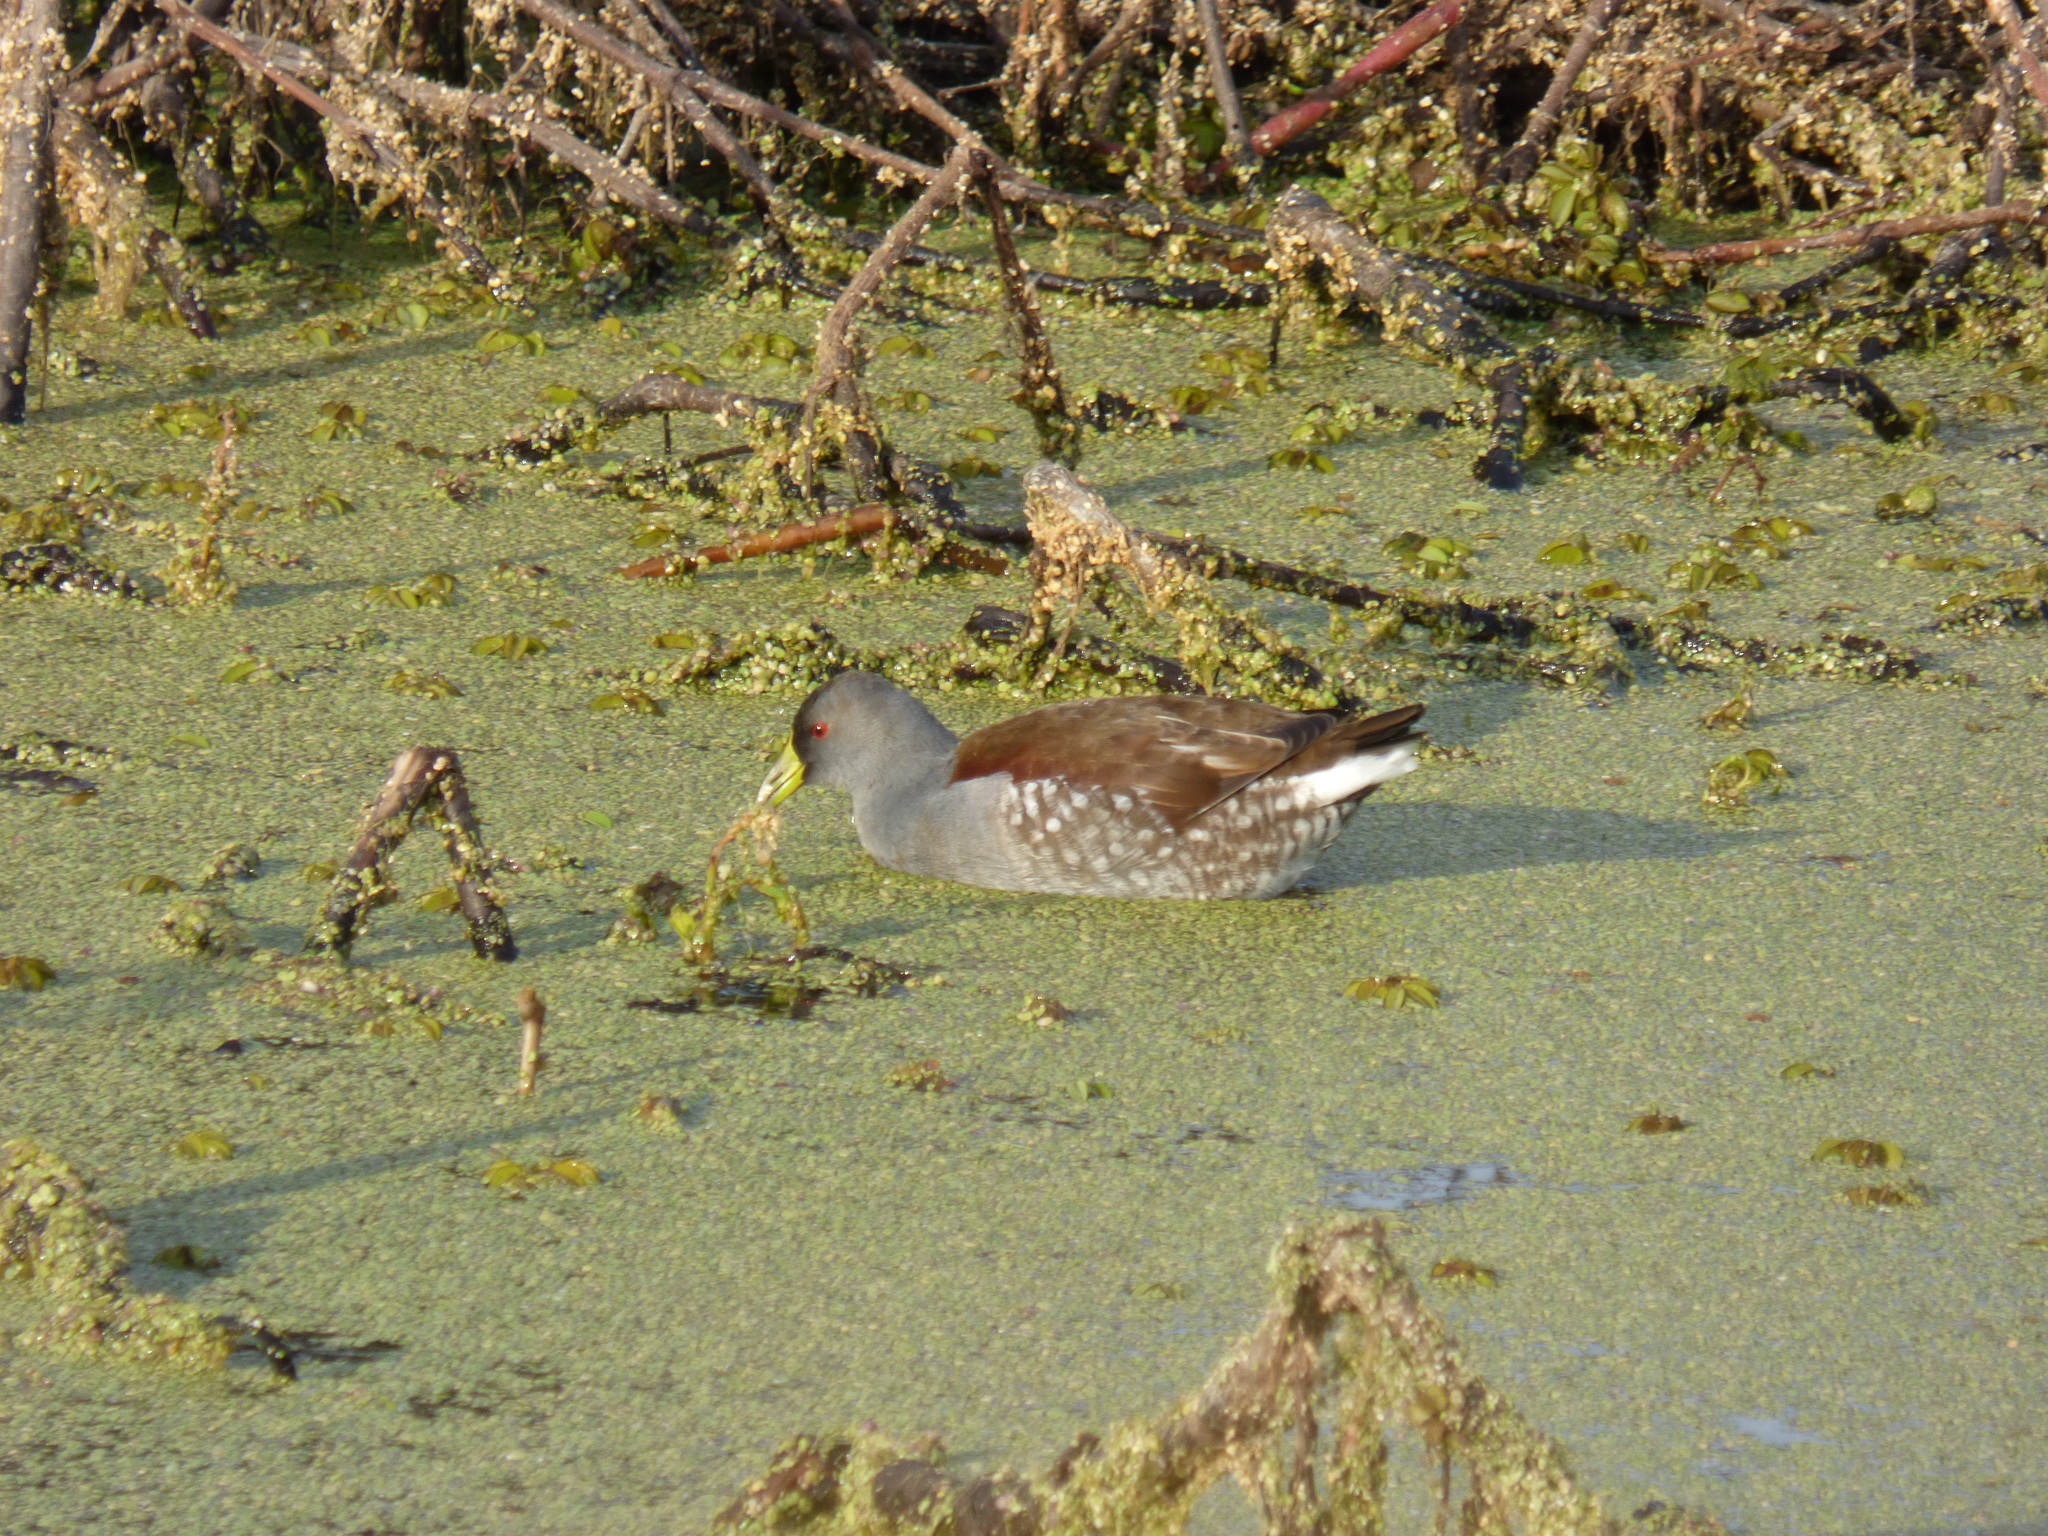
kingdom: Animalia
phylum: Chordata
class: Aves
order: Gruiformes
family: Rallidae
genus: Gallinula
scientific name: Gallinula melanops
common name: Spot-flanked gallinule
